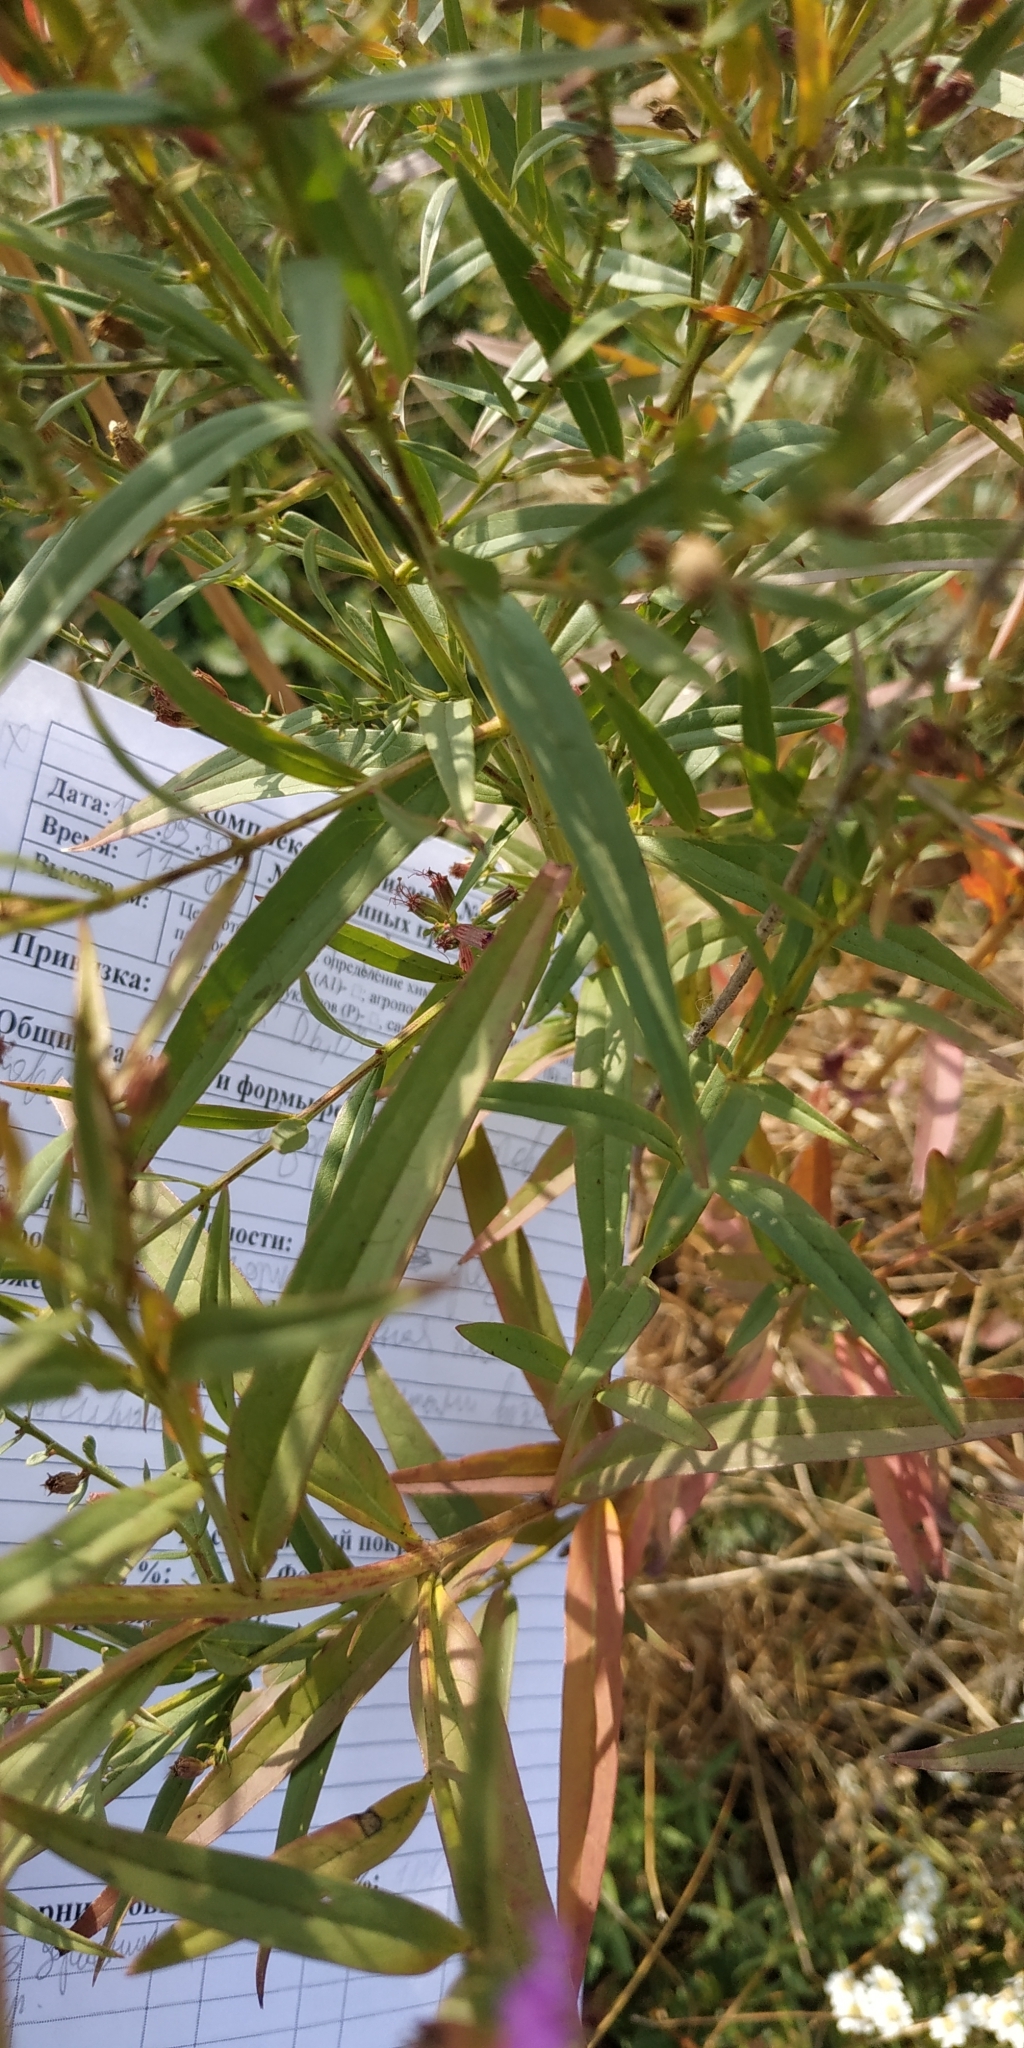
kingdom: Plantae
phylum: Tracheophyta
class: Magnoliopsida
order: Myrtales
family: Lythraceae
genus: Lythrum
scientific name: Lythrum virgatum
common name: European wand loosestrife
